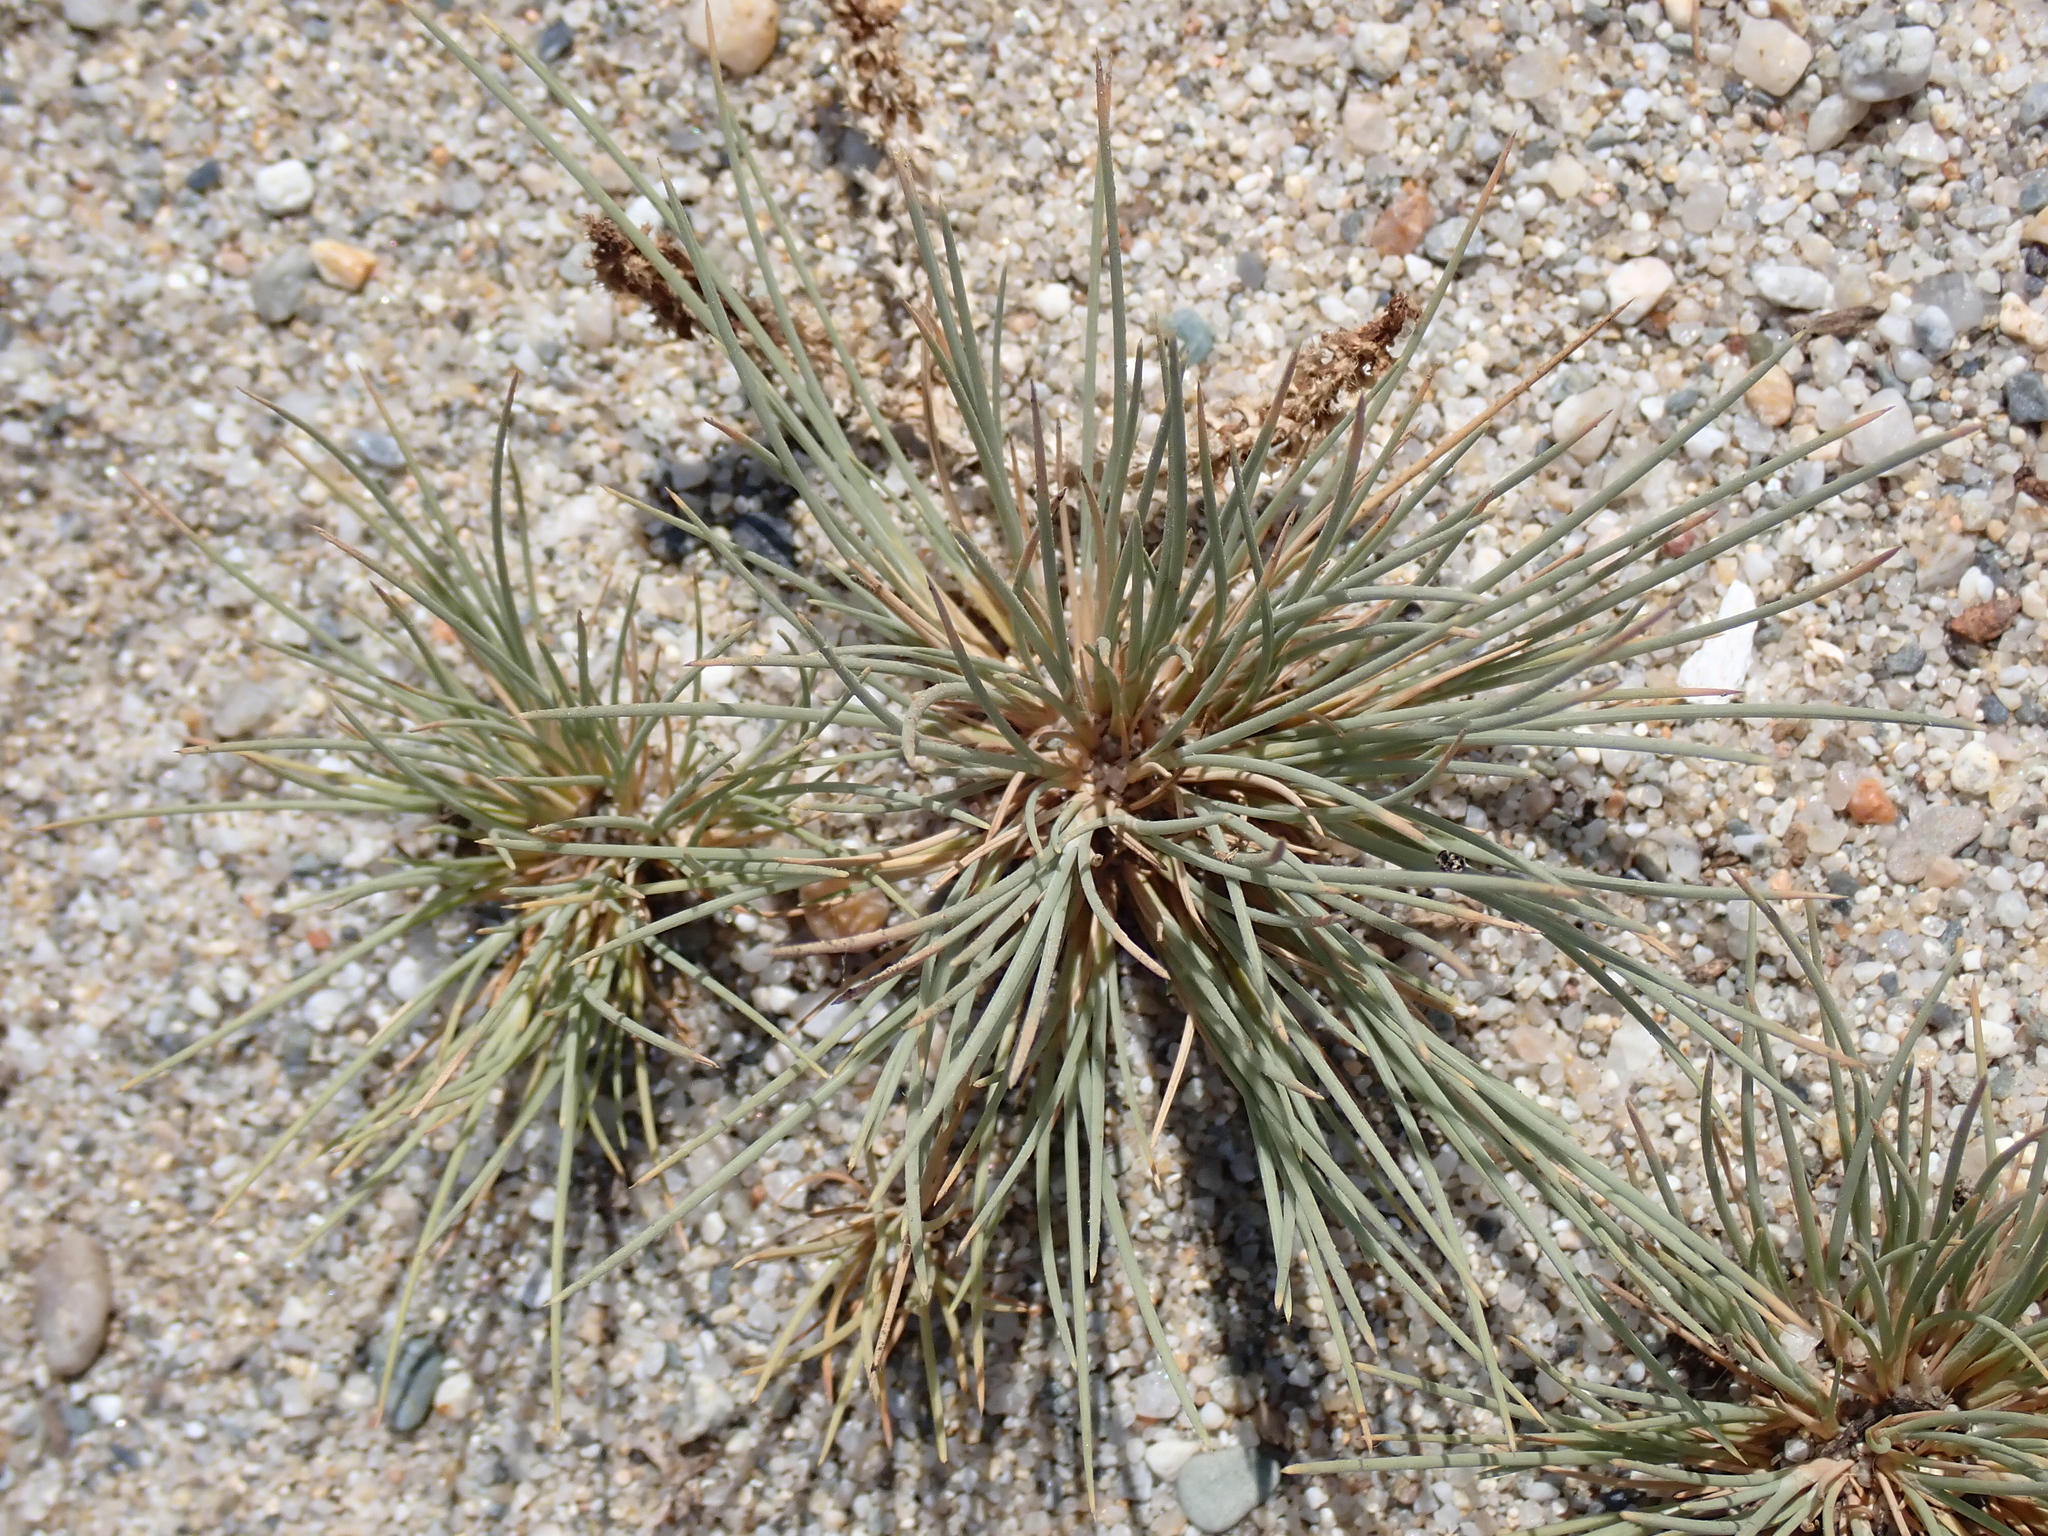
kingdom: Plantae
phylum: Tracheophyta
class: Liliopsida
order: Poales
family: Poaceae
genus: Corynephorus
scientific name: Corynephorus canescens
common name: Grey hair-grass
